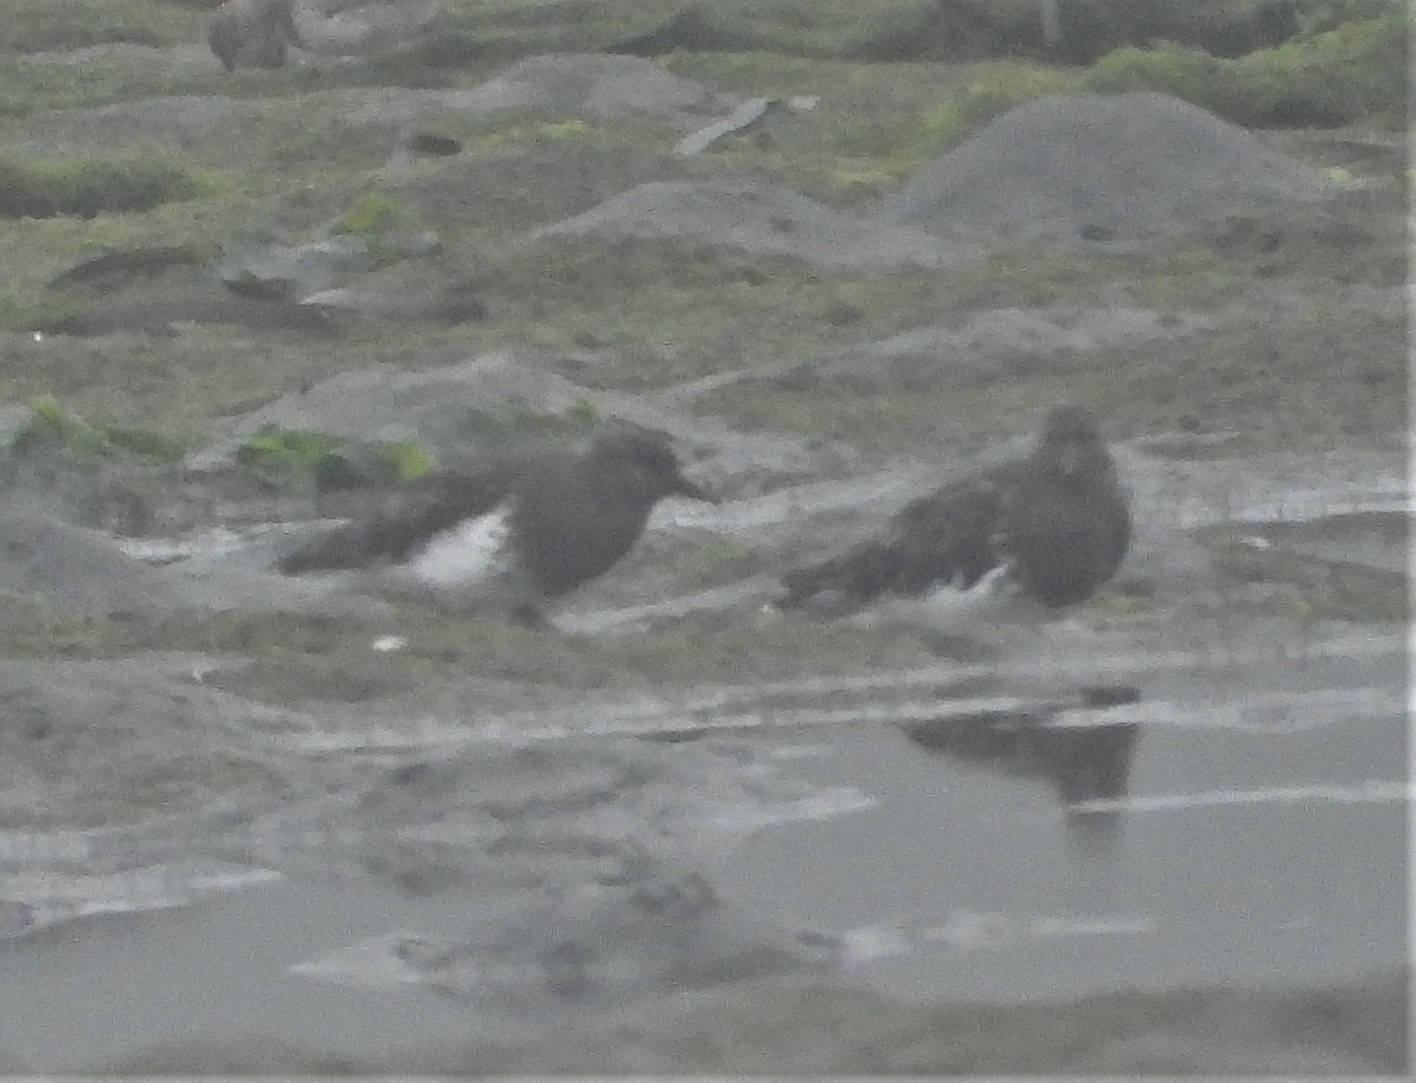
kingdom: Animalia
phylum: Chordata
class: Aves
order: Charadriiformes
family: Scolopacidae
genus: Arenaria
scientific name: Arenaria melanocephala
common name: Black turnstone
